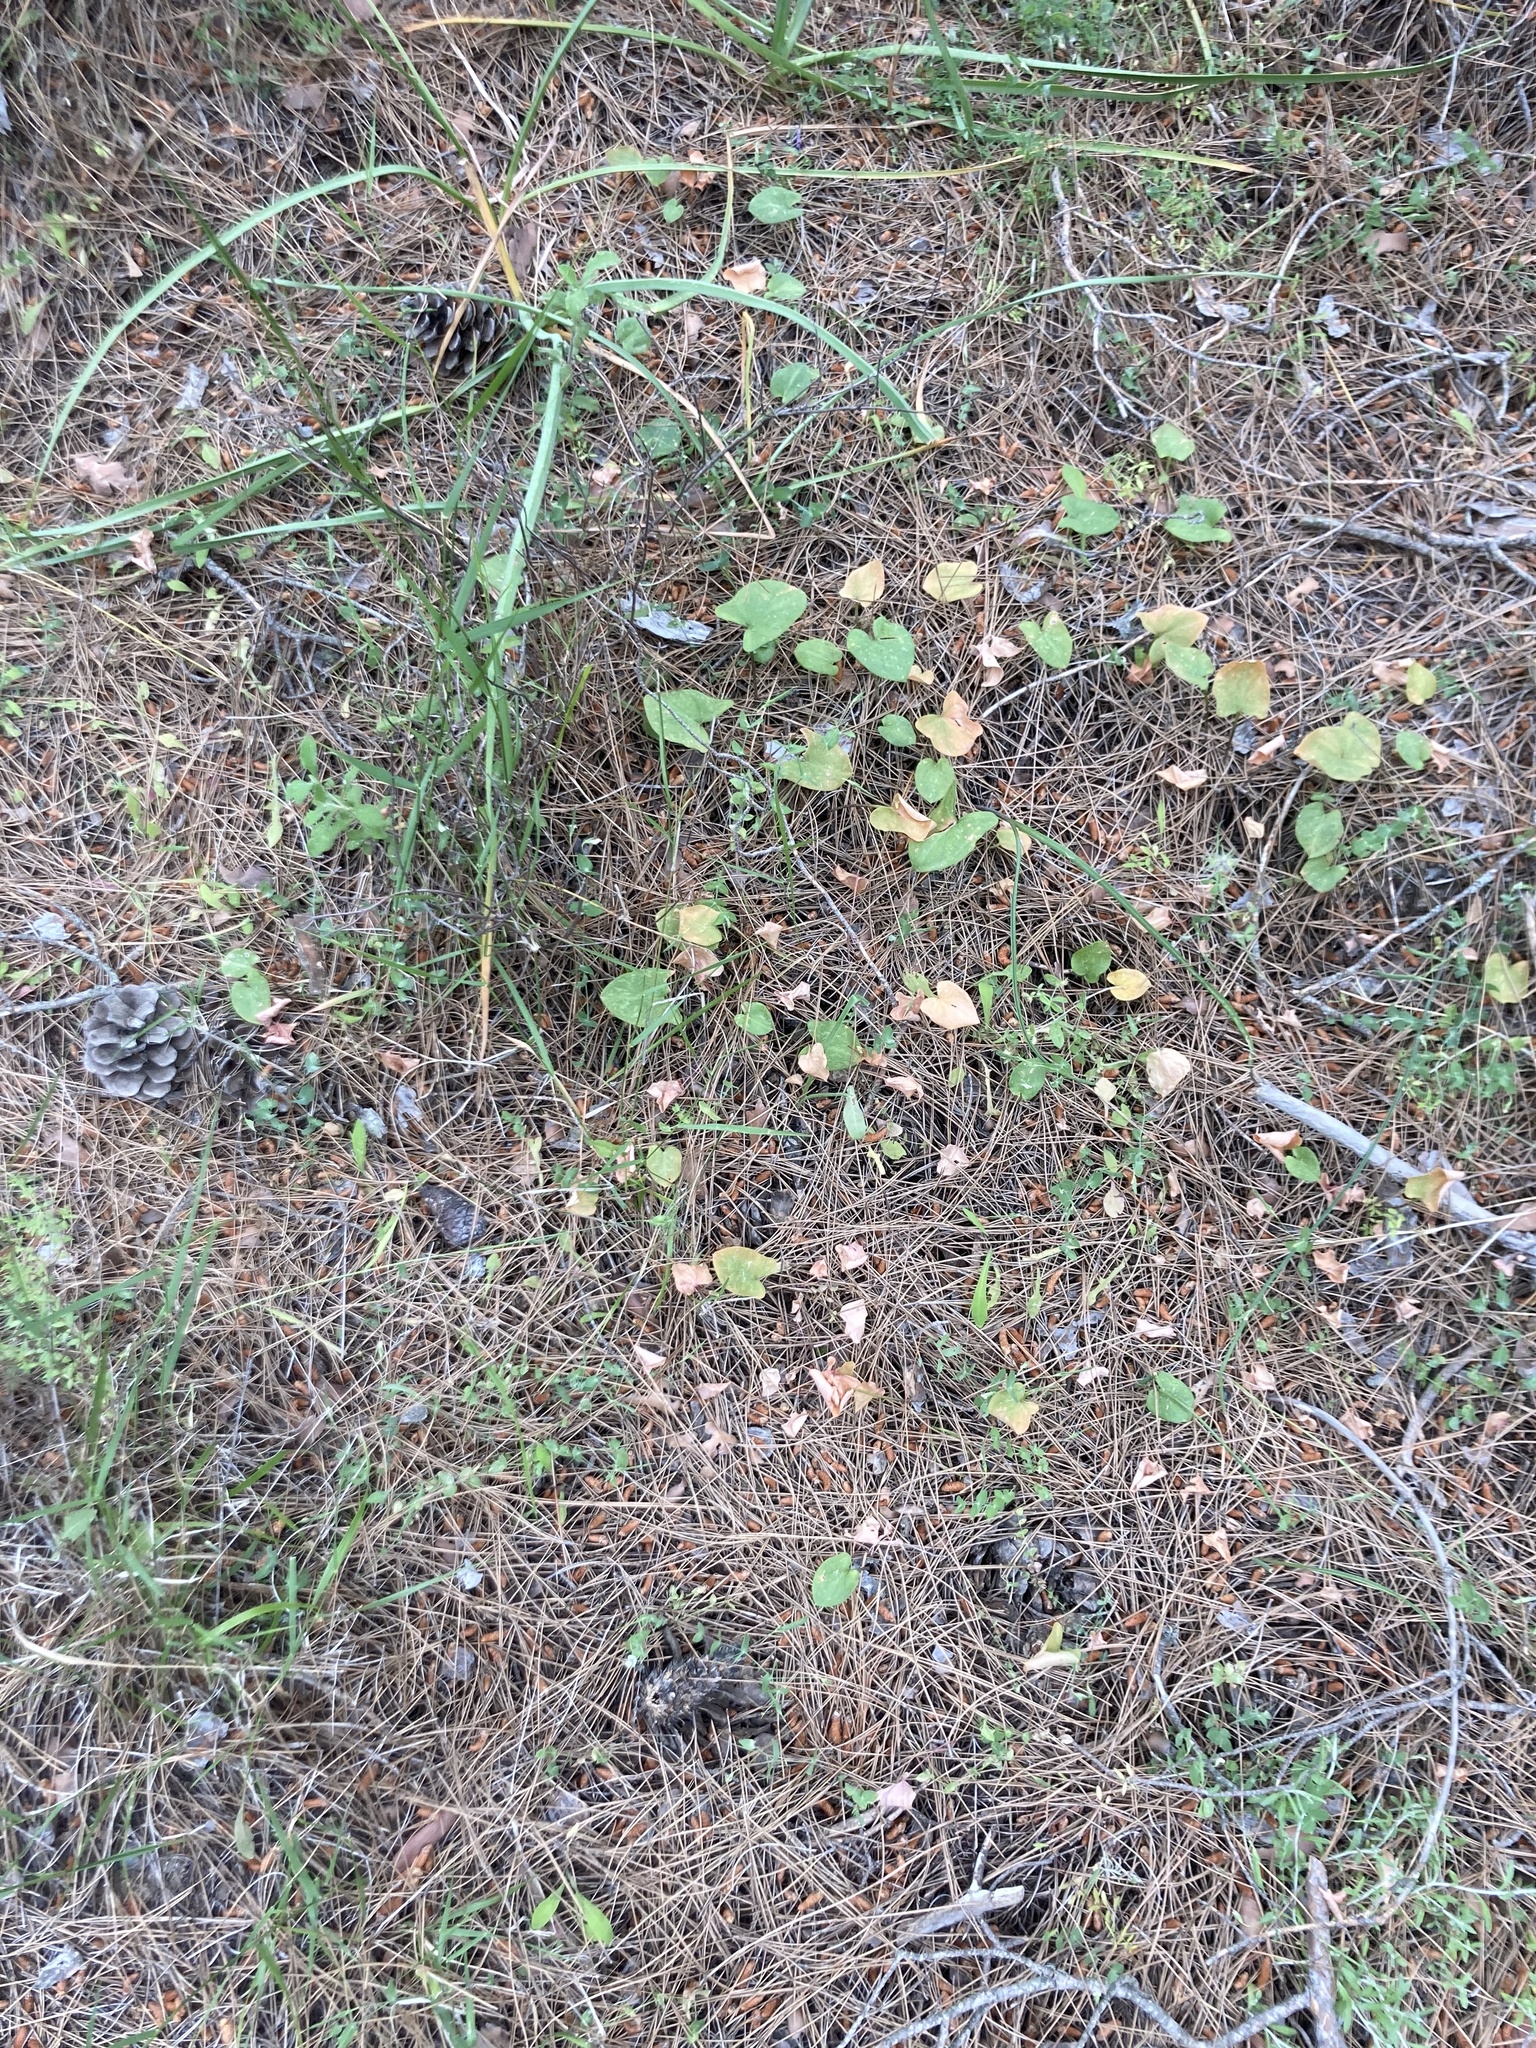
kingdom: Plantae
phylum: Tracheophyta
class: Liliopsida
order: Alismatales
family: Araceae
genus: Arisarum
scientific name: Arisarum vulgare
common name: Common arisarum
